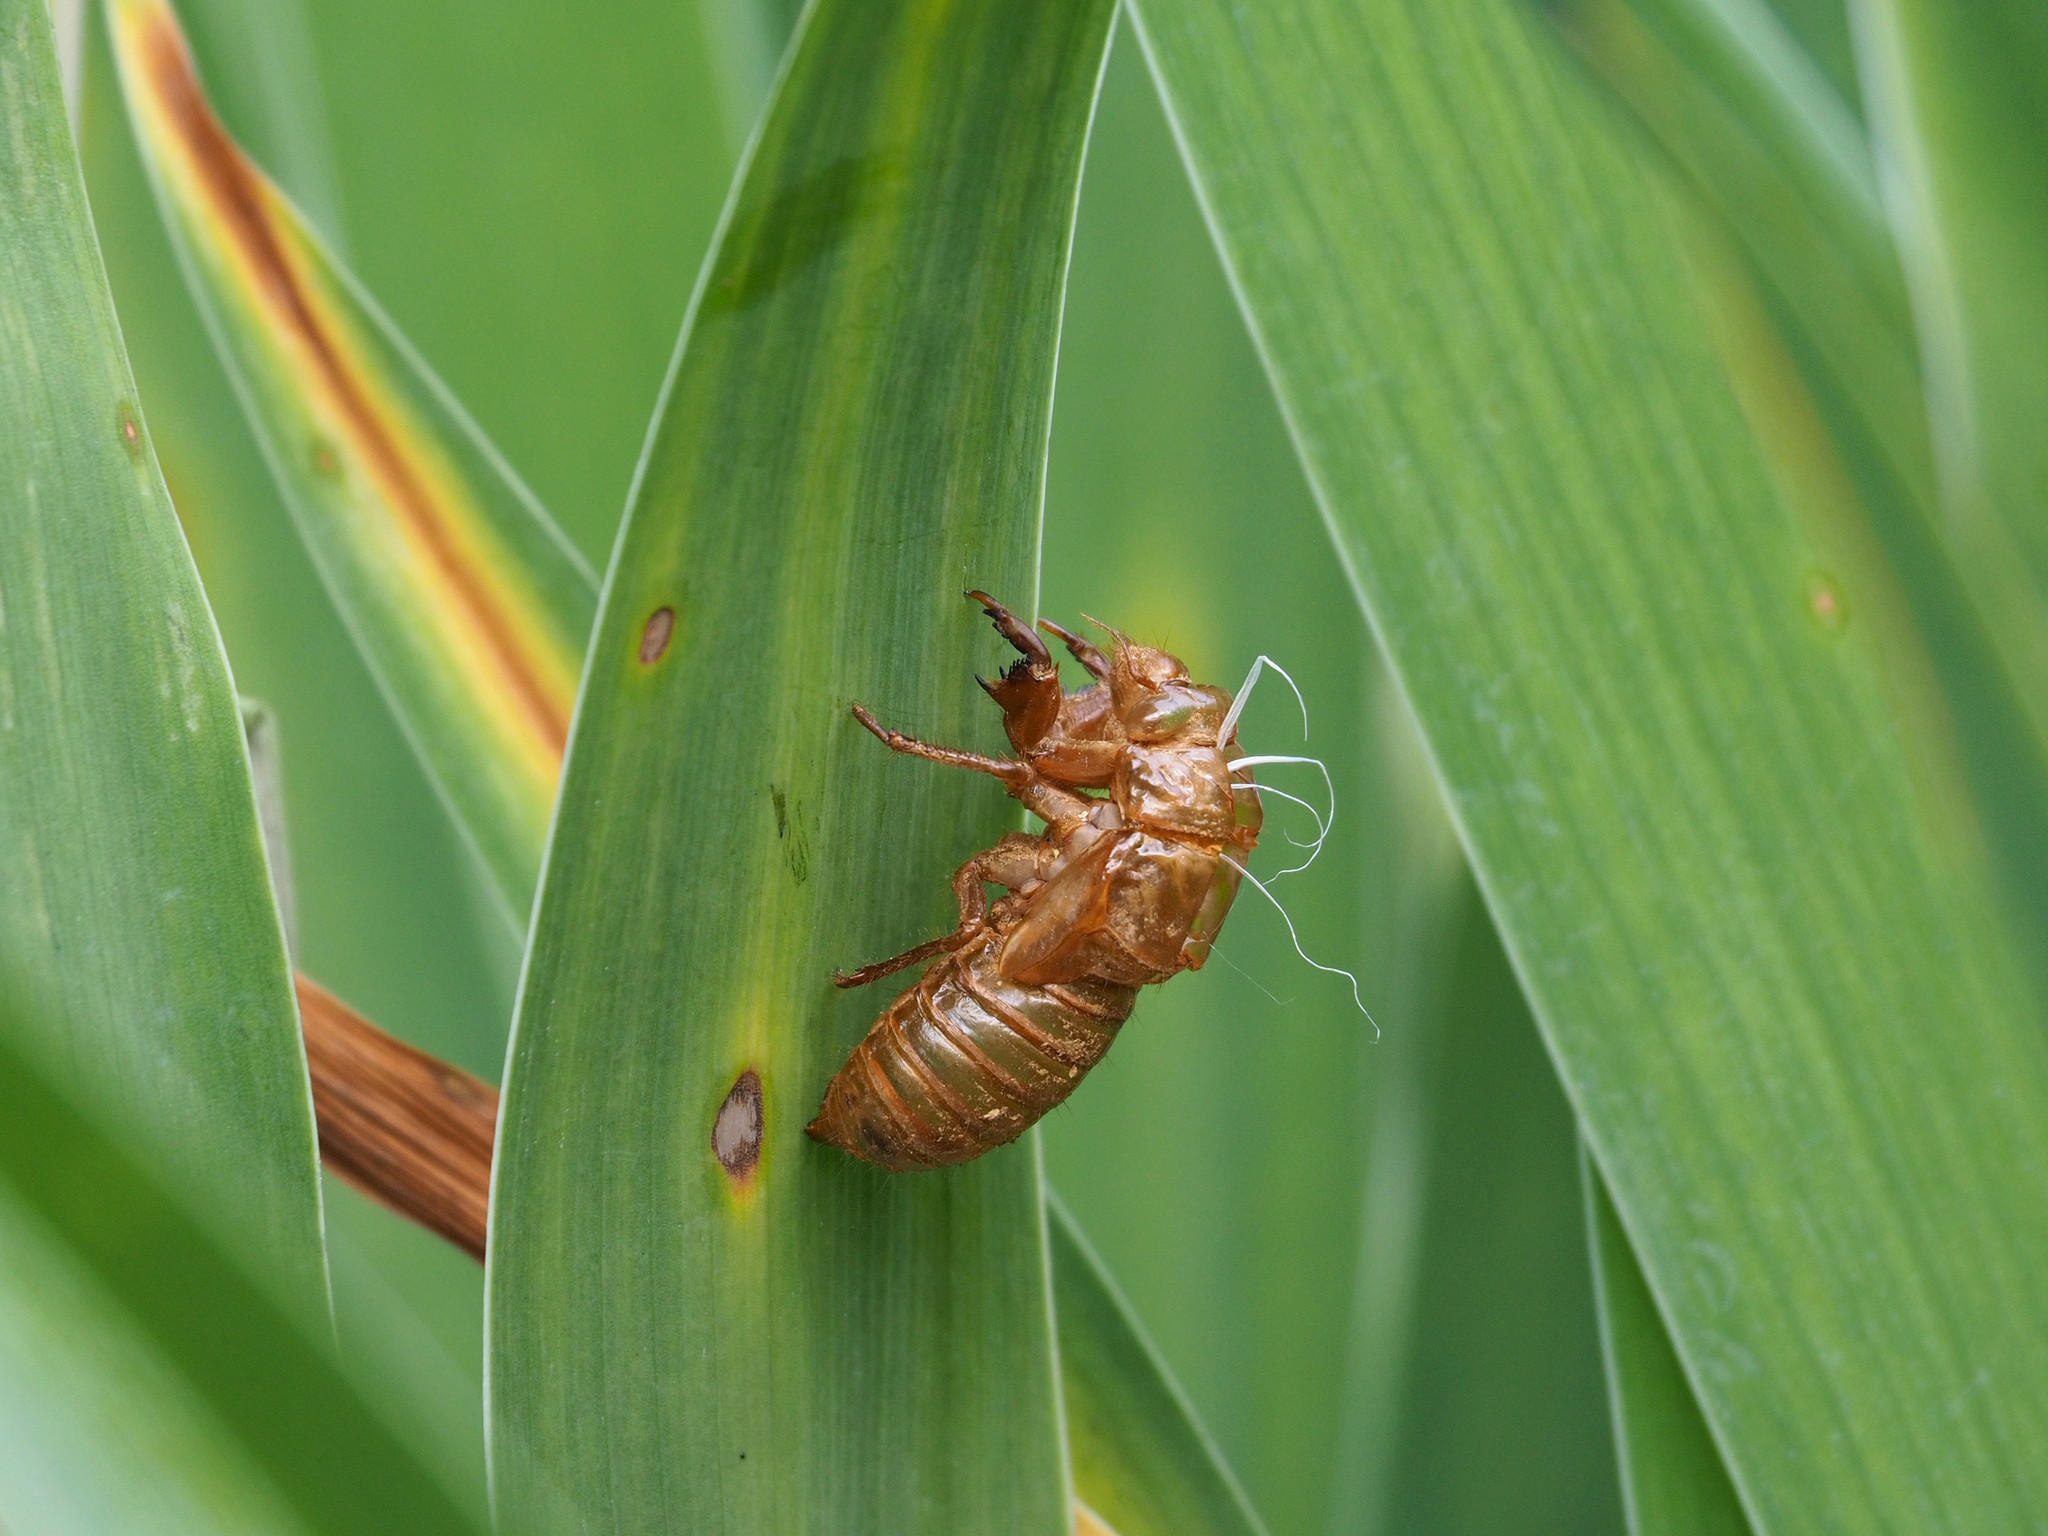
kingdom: Animalia
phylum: Arthropoda
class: Insecta
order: Hemiptera
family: Cicadidae
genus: Magicicada
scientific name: Magicicada
